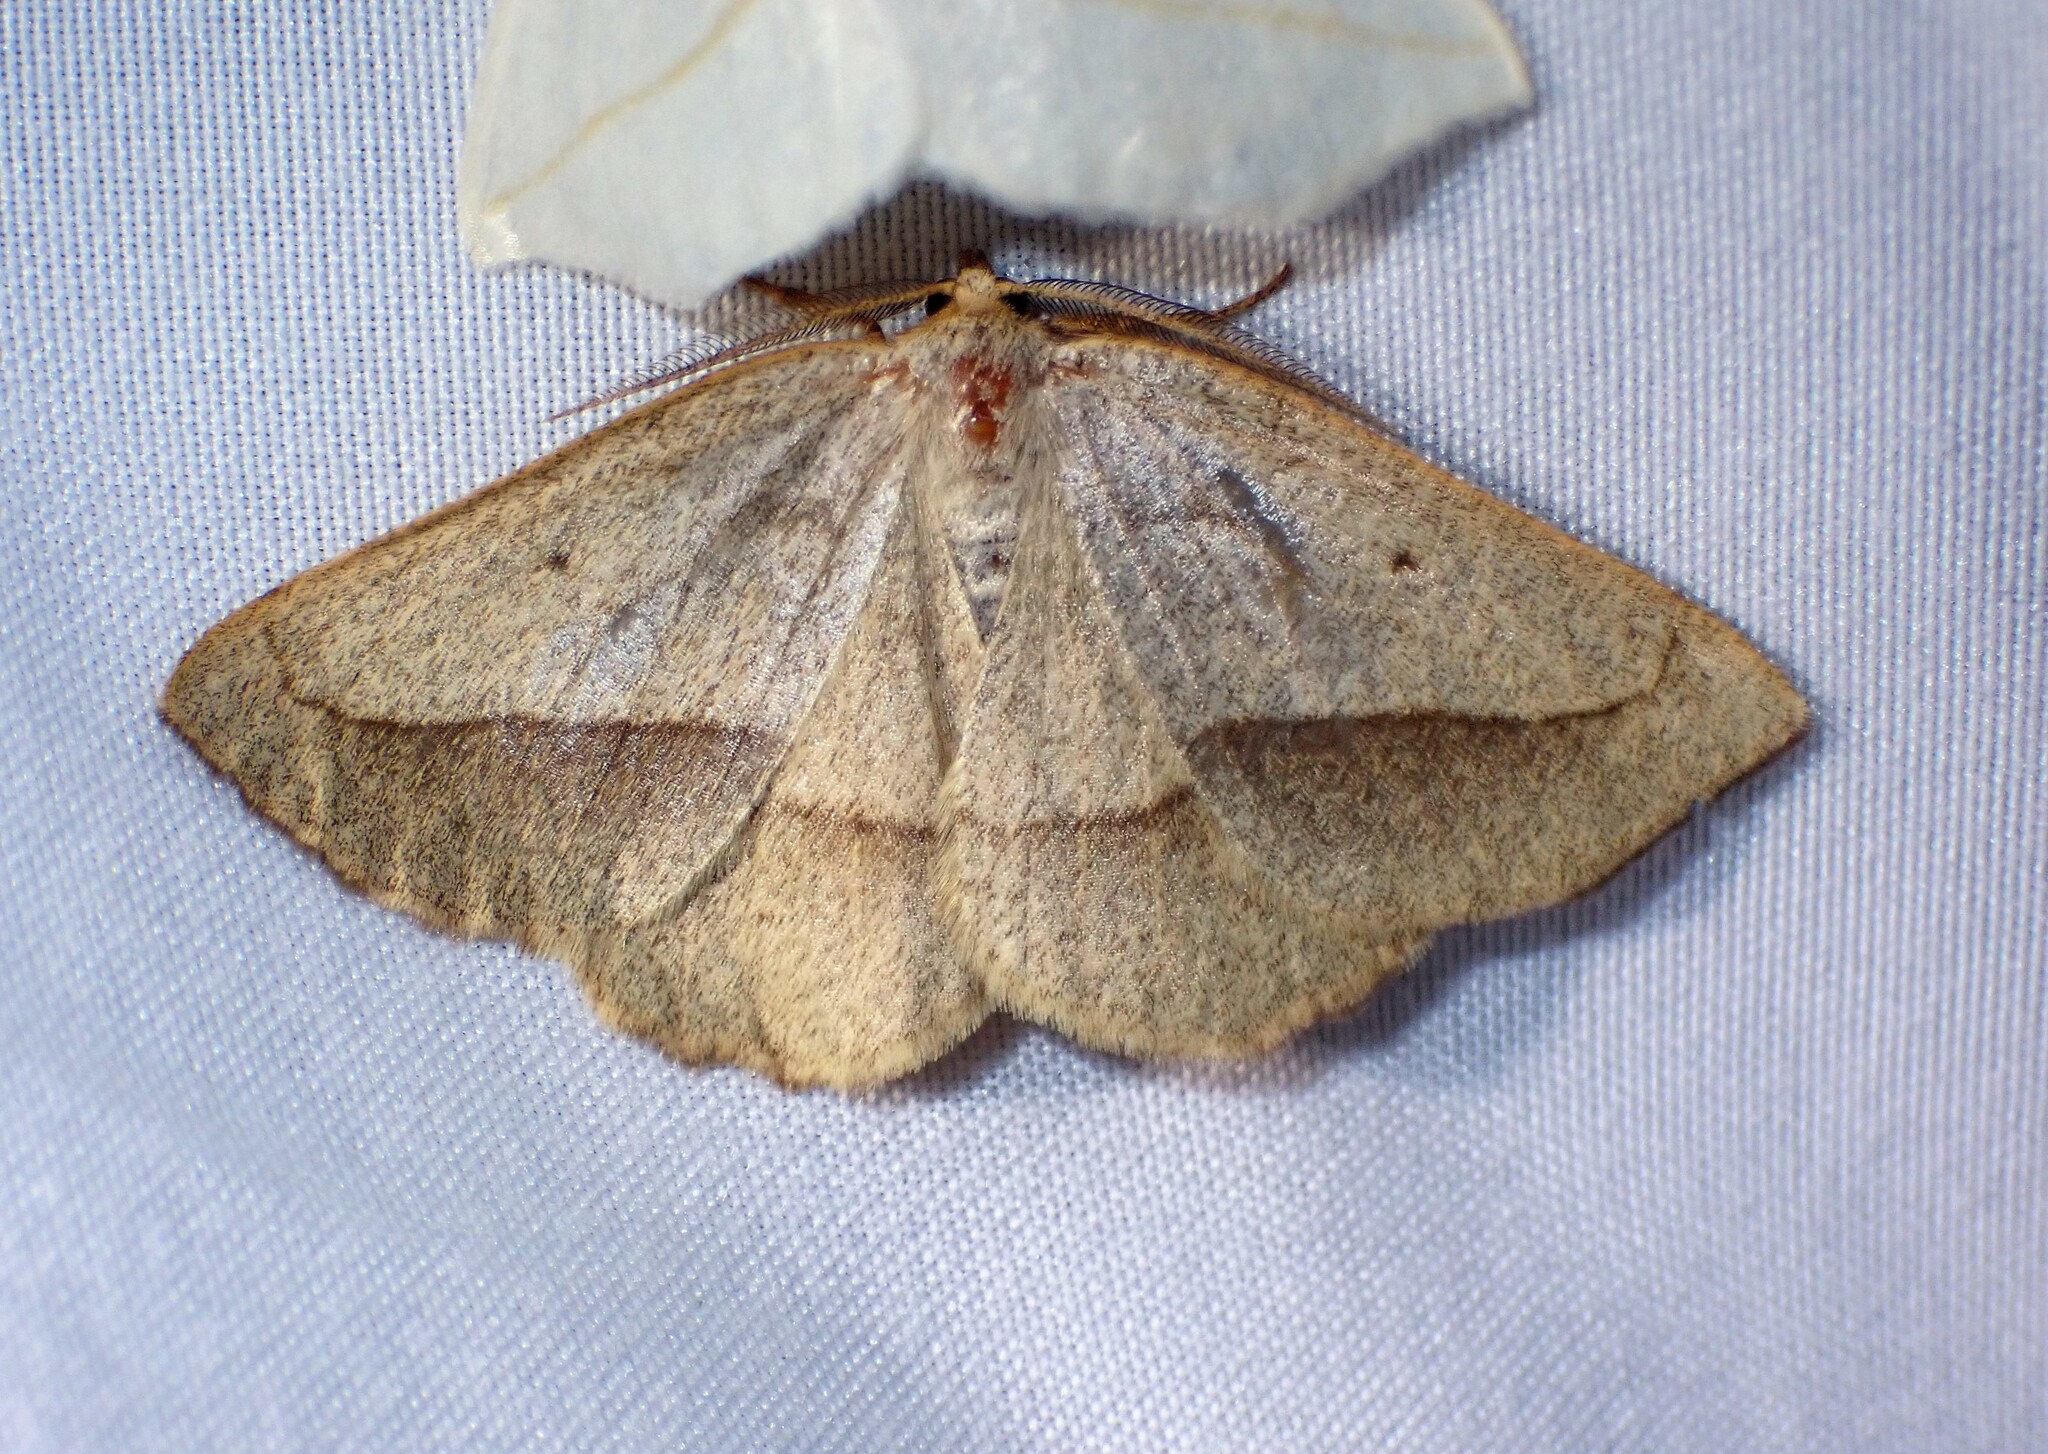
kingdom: Animalia
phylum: Arthropoda
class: Insecta
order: Lepidoptera
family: Geometridae
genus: Euchlaena
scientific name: Euchlaena irraria
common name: Least-marked euchlaena
